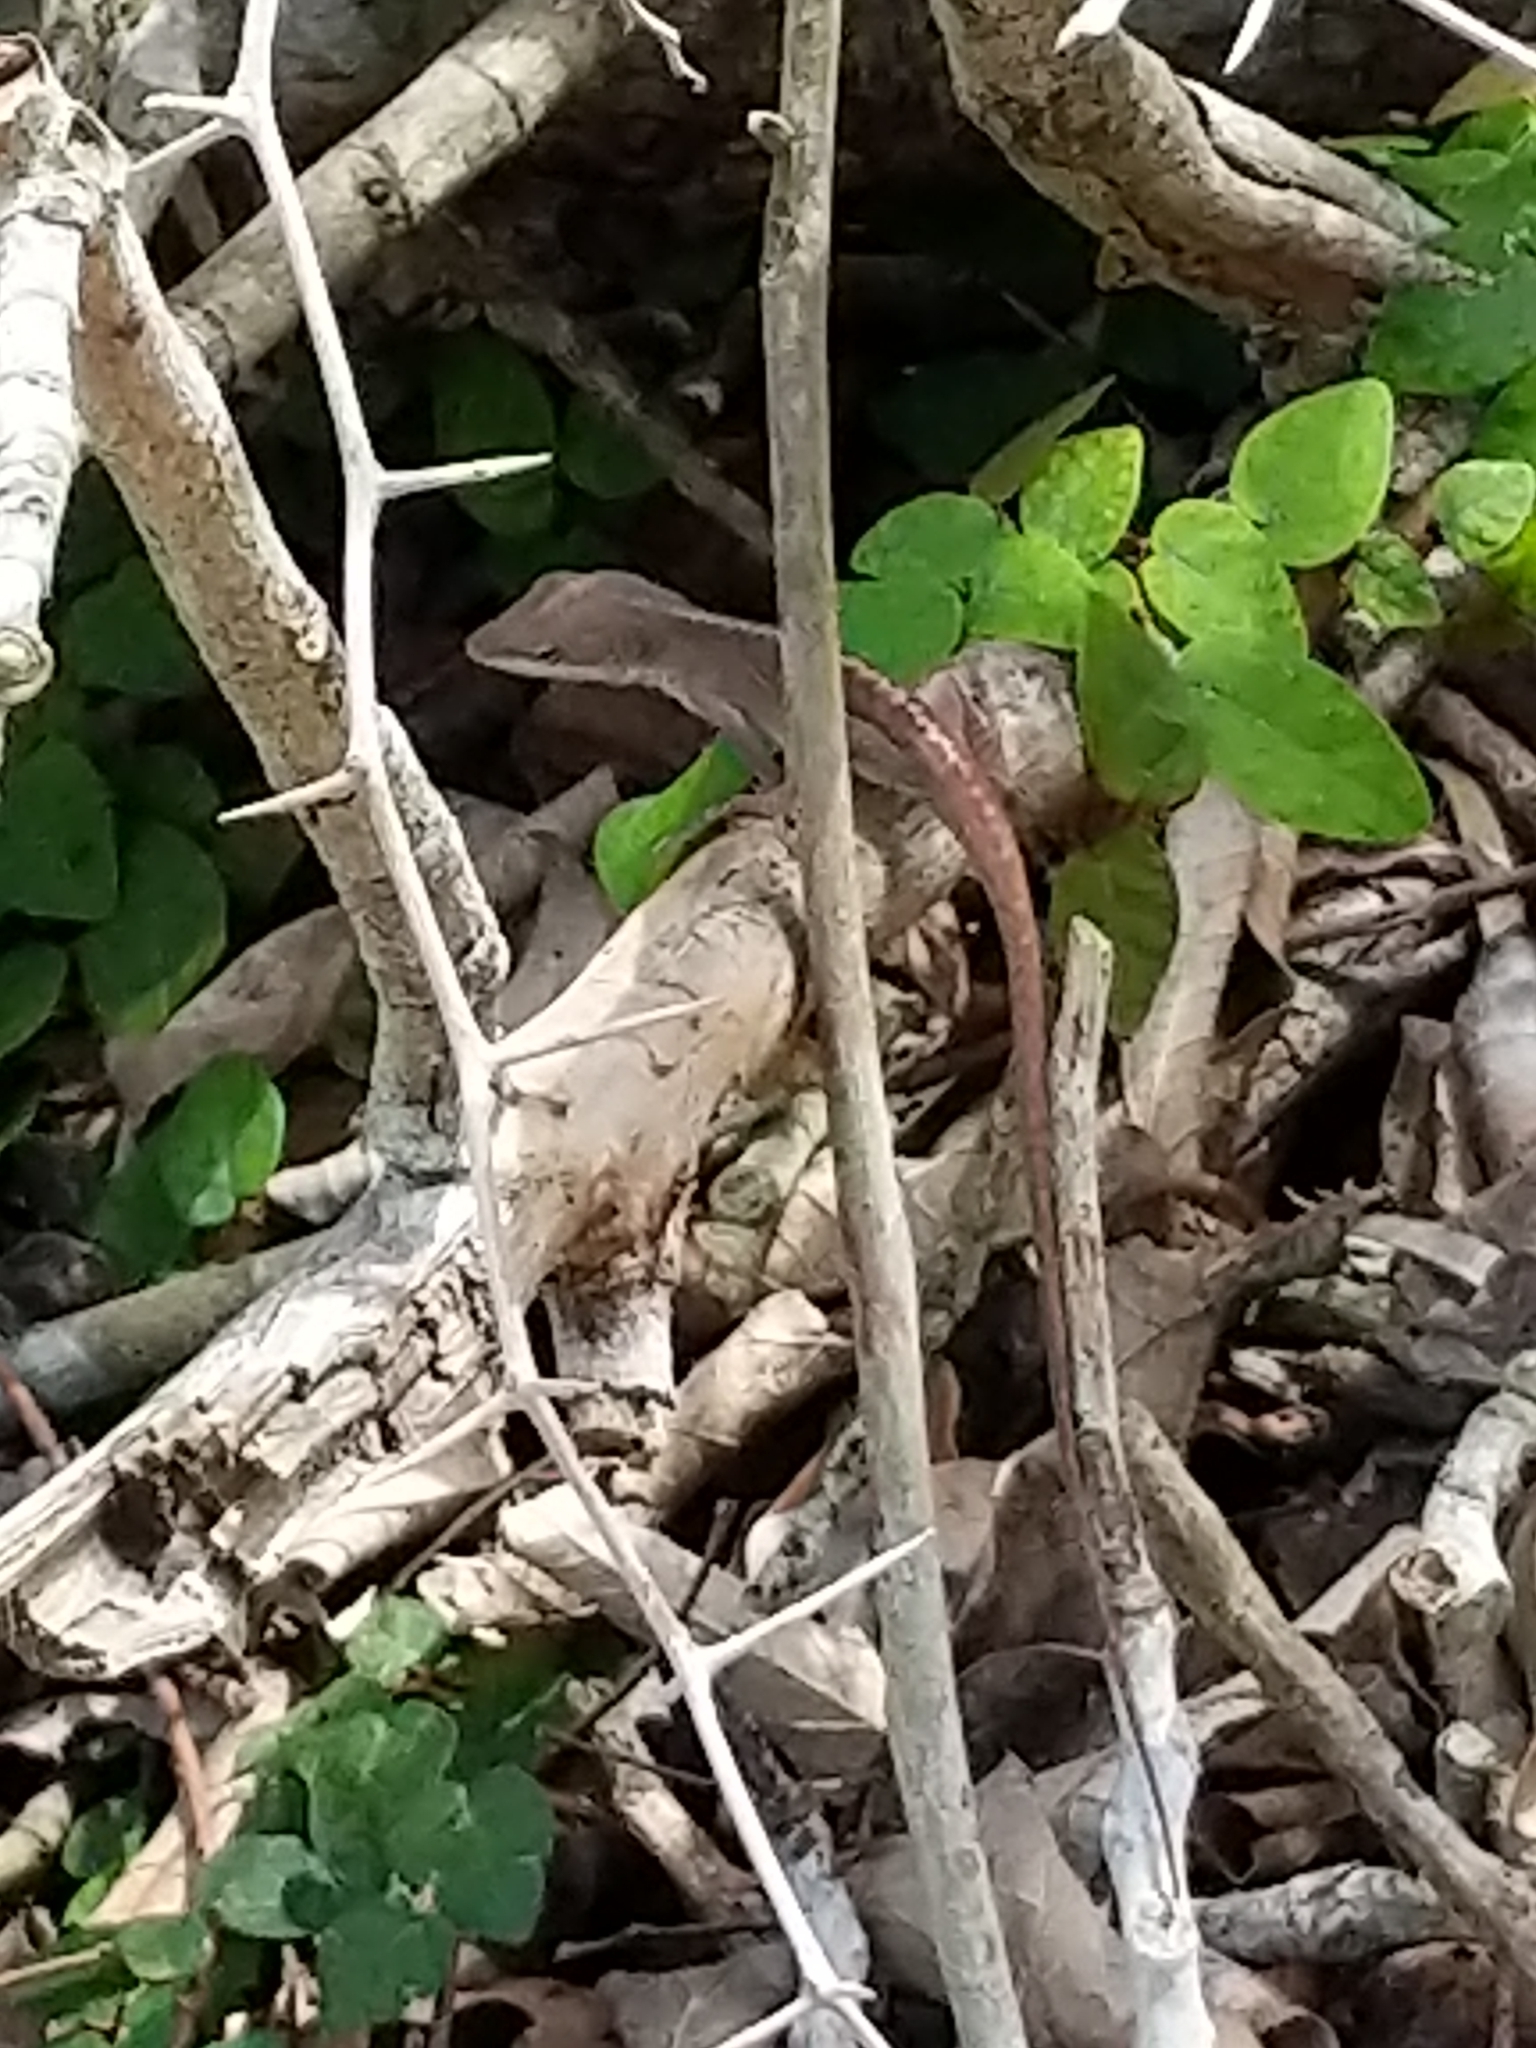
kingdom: Animalia
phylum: Chordata
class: Squamata
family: Dactyloidae
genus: Anolis
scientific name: Anolis carolinensis
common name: Green anole
